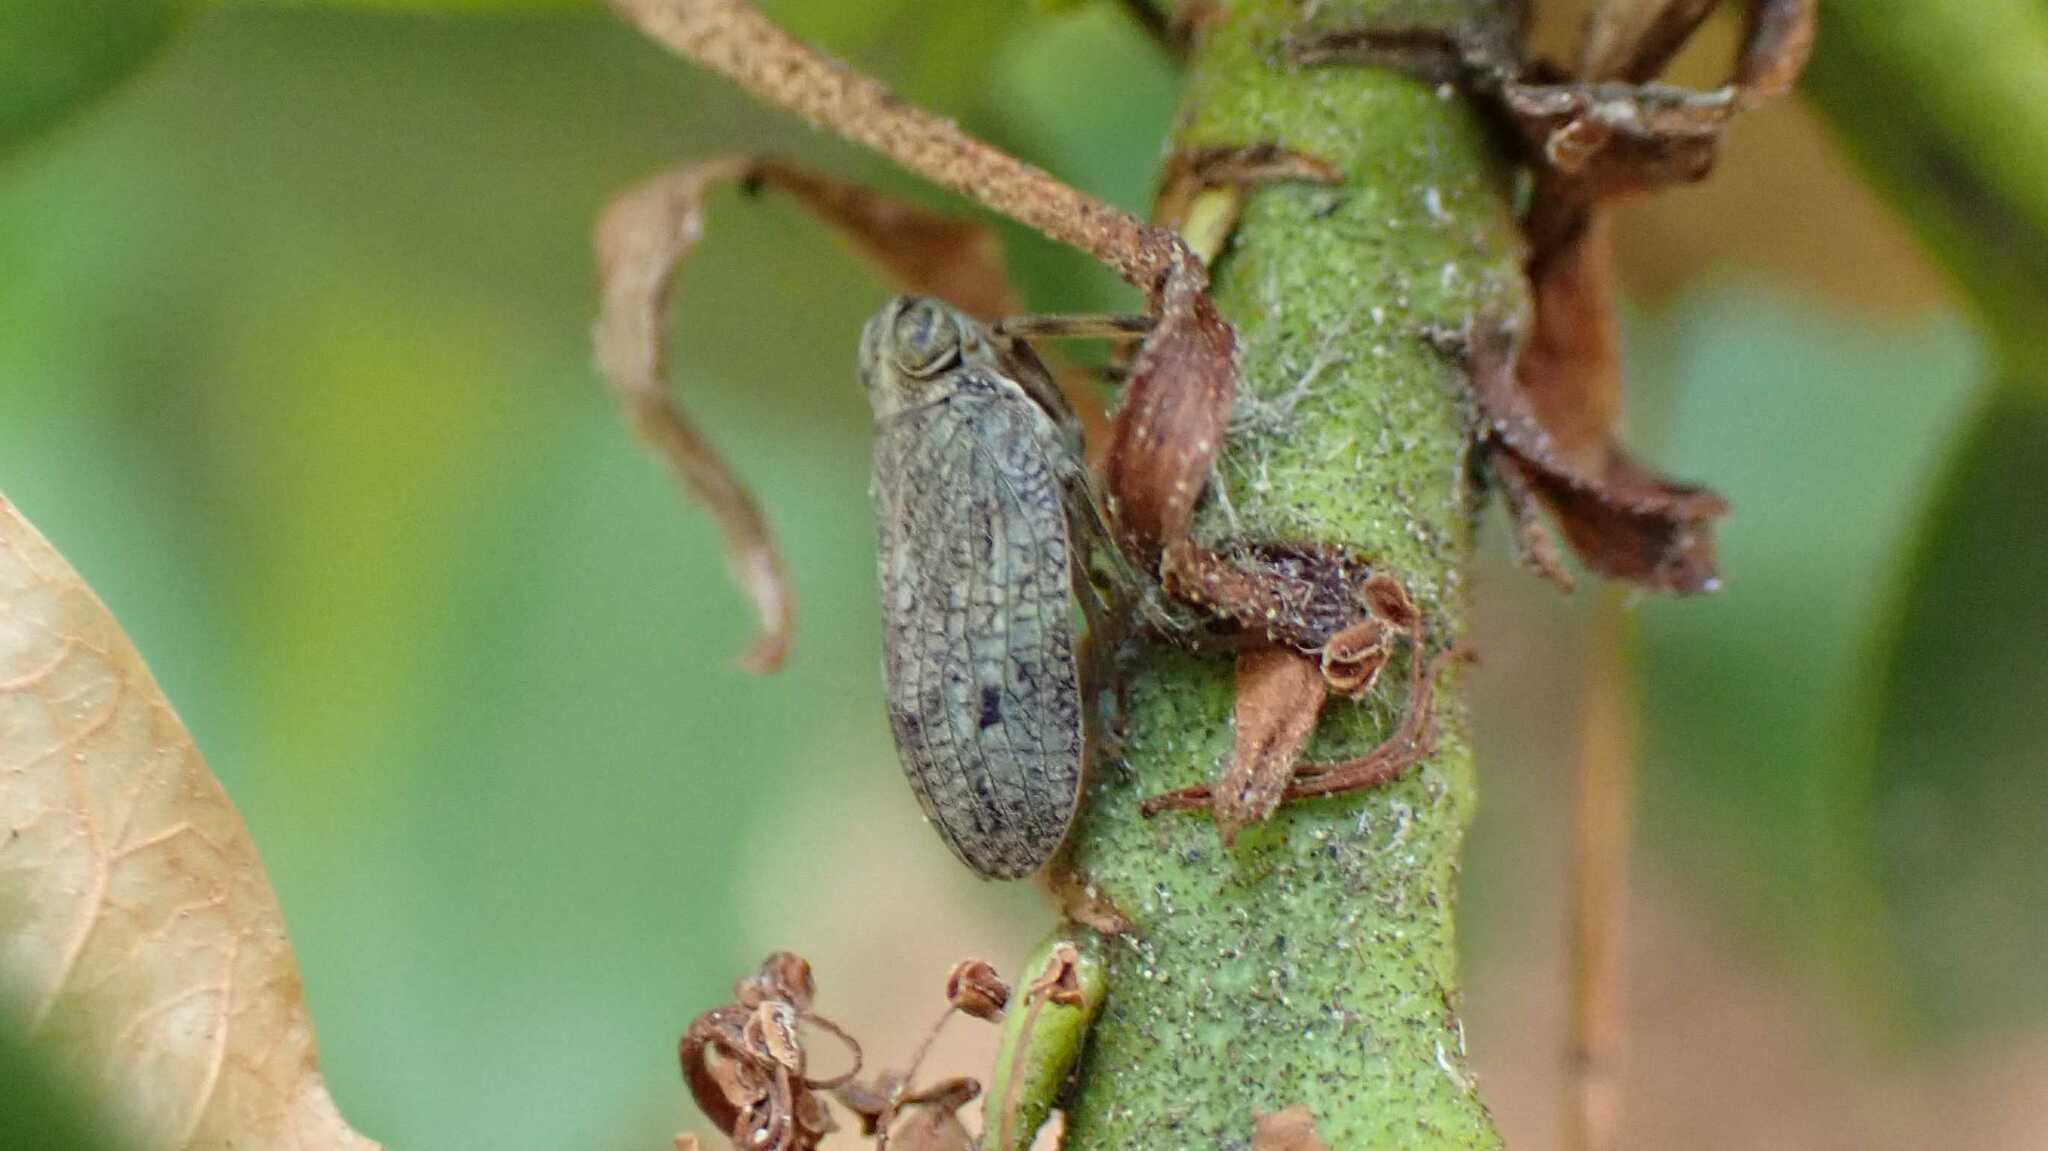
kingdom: Animalia
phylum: Arthropoda
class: Insecta
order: Hemiptera
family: Issidae
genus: Issus
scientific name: Issus coleoptratus
